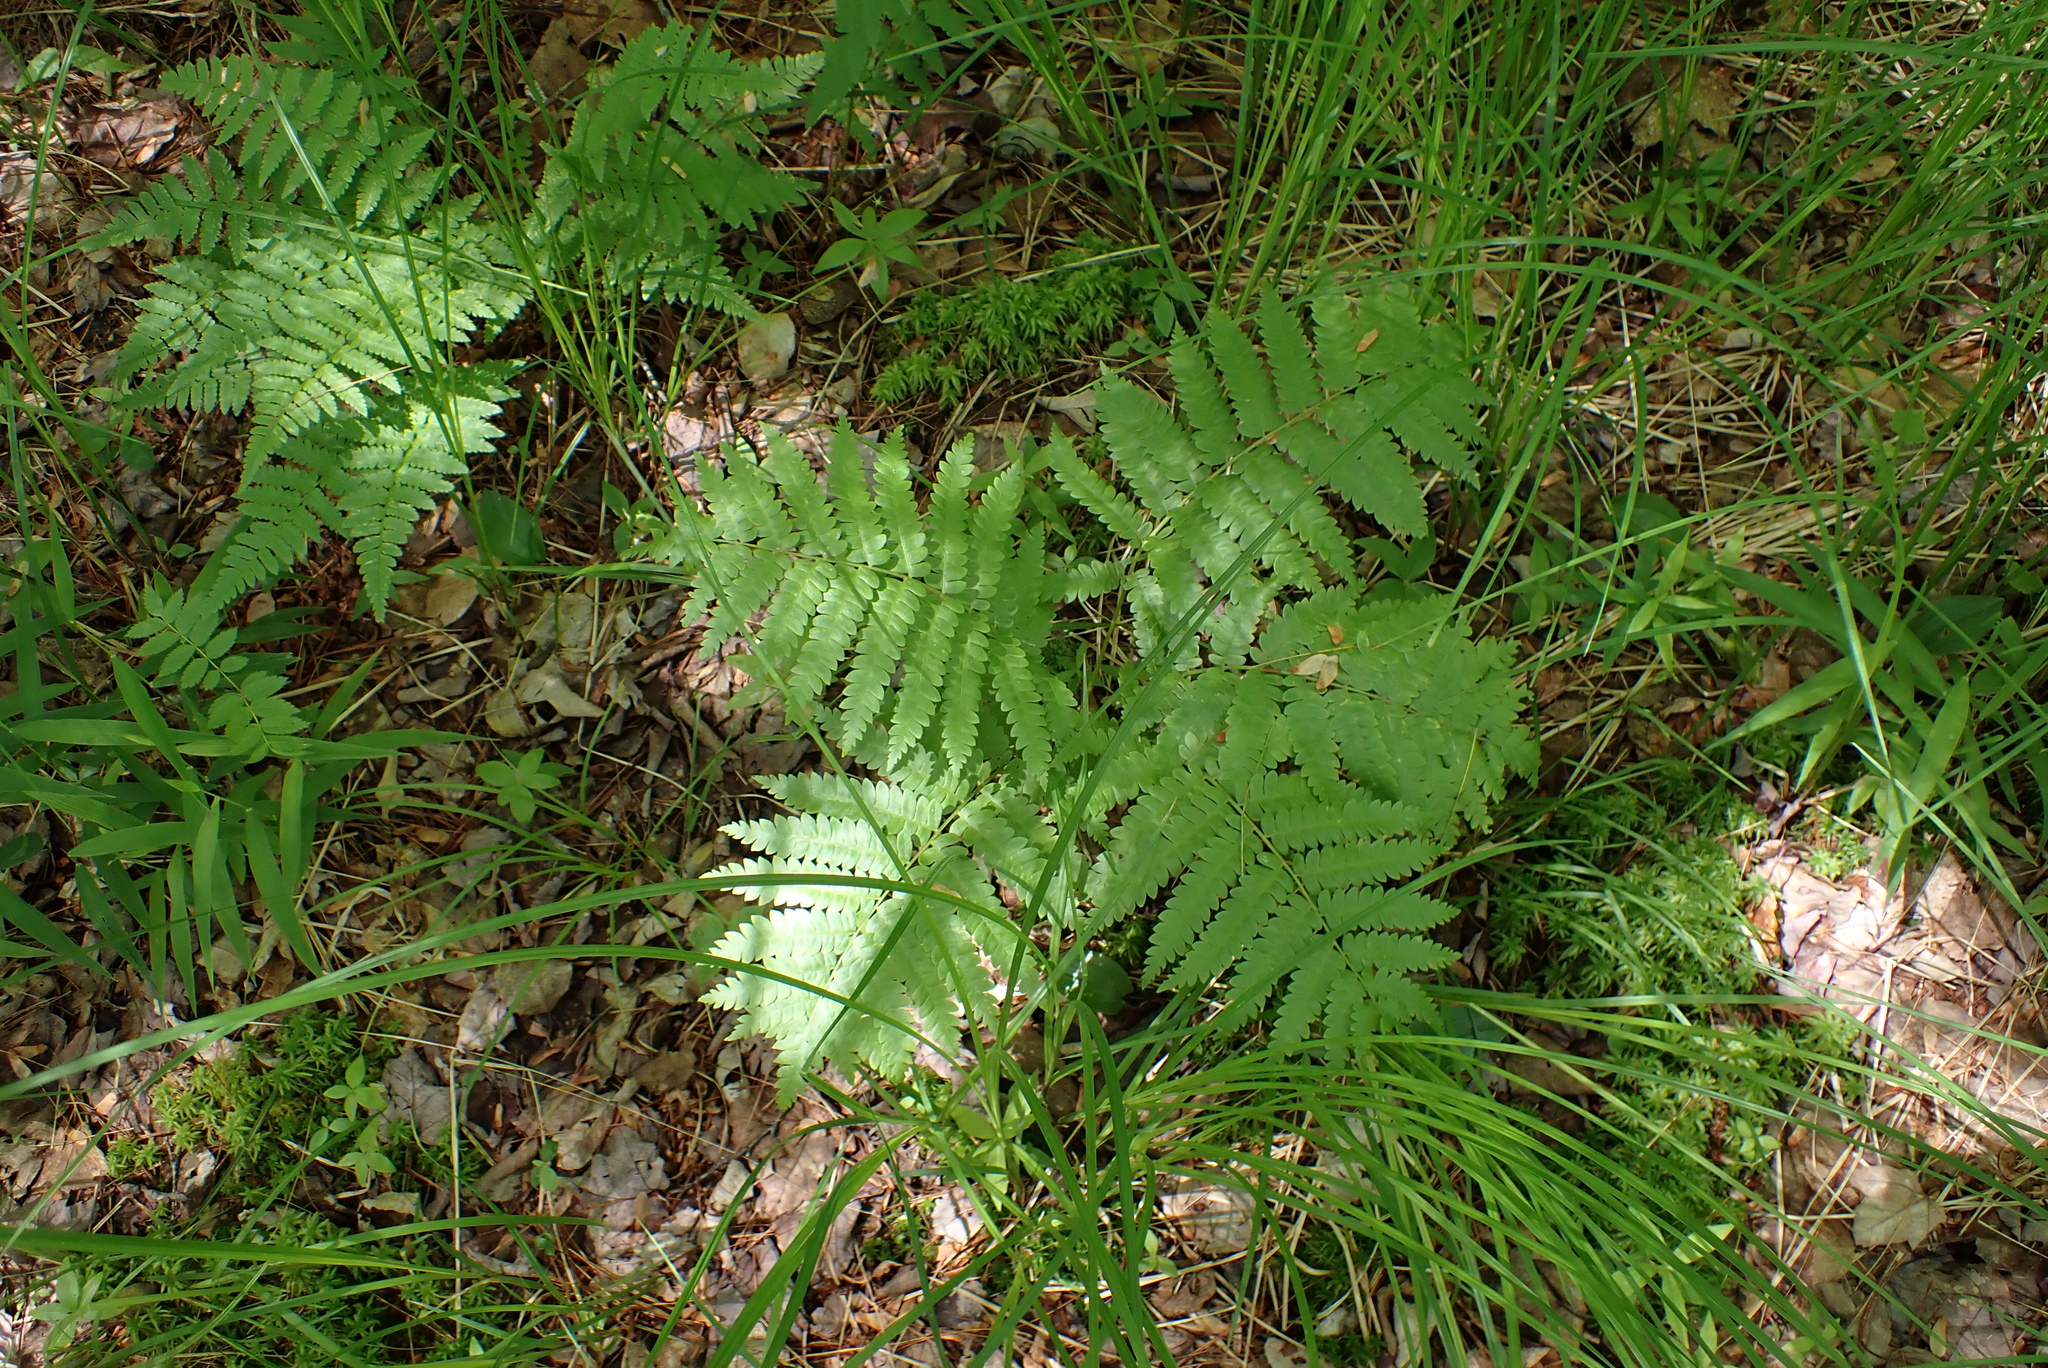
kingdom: Plantae
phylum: Tracheophyta
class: Polypodiopsida
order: Osmundales
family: Osmundaceae
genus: Osmundastrum
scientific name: Osmundastrum cinnamomeum
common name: Cinnamon fern
